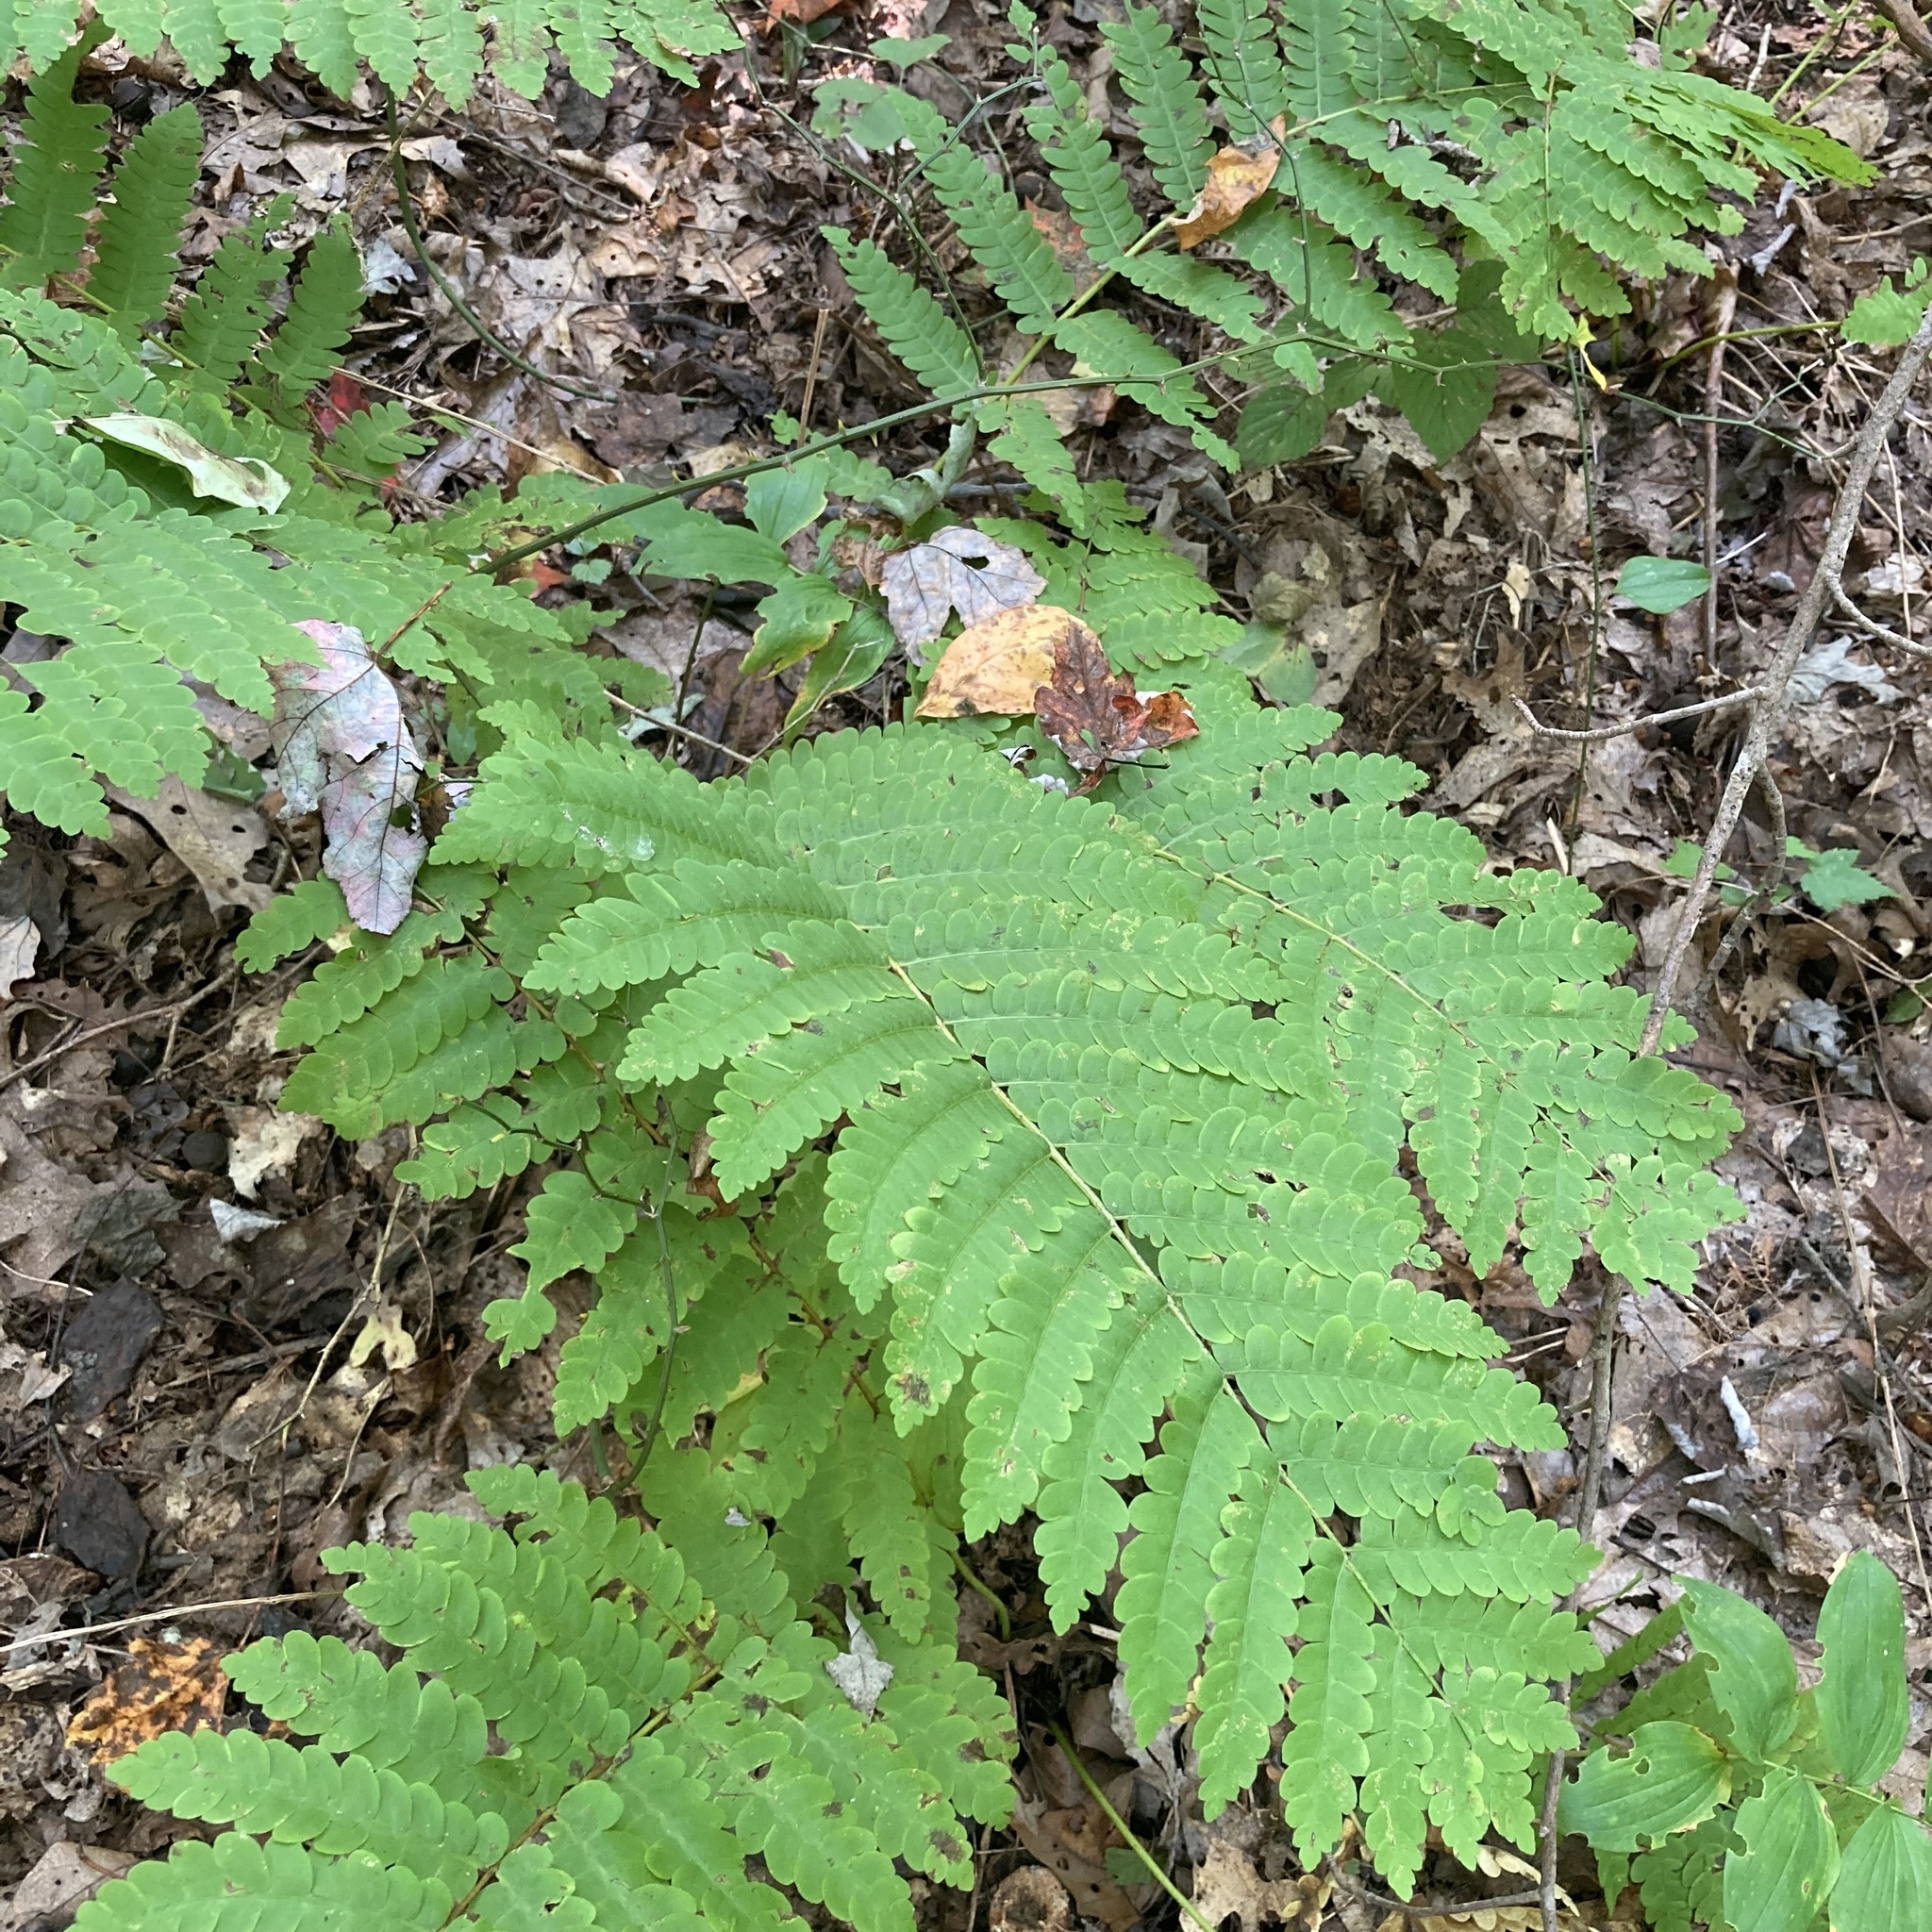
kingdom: Plantae
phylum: Tracheophyta
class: Polypodiopsida
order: Osmundales
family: Osmundaceae
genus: Claytosmunda
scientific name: Claytosmunda claytoniana
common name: Clayton's fern
